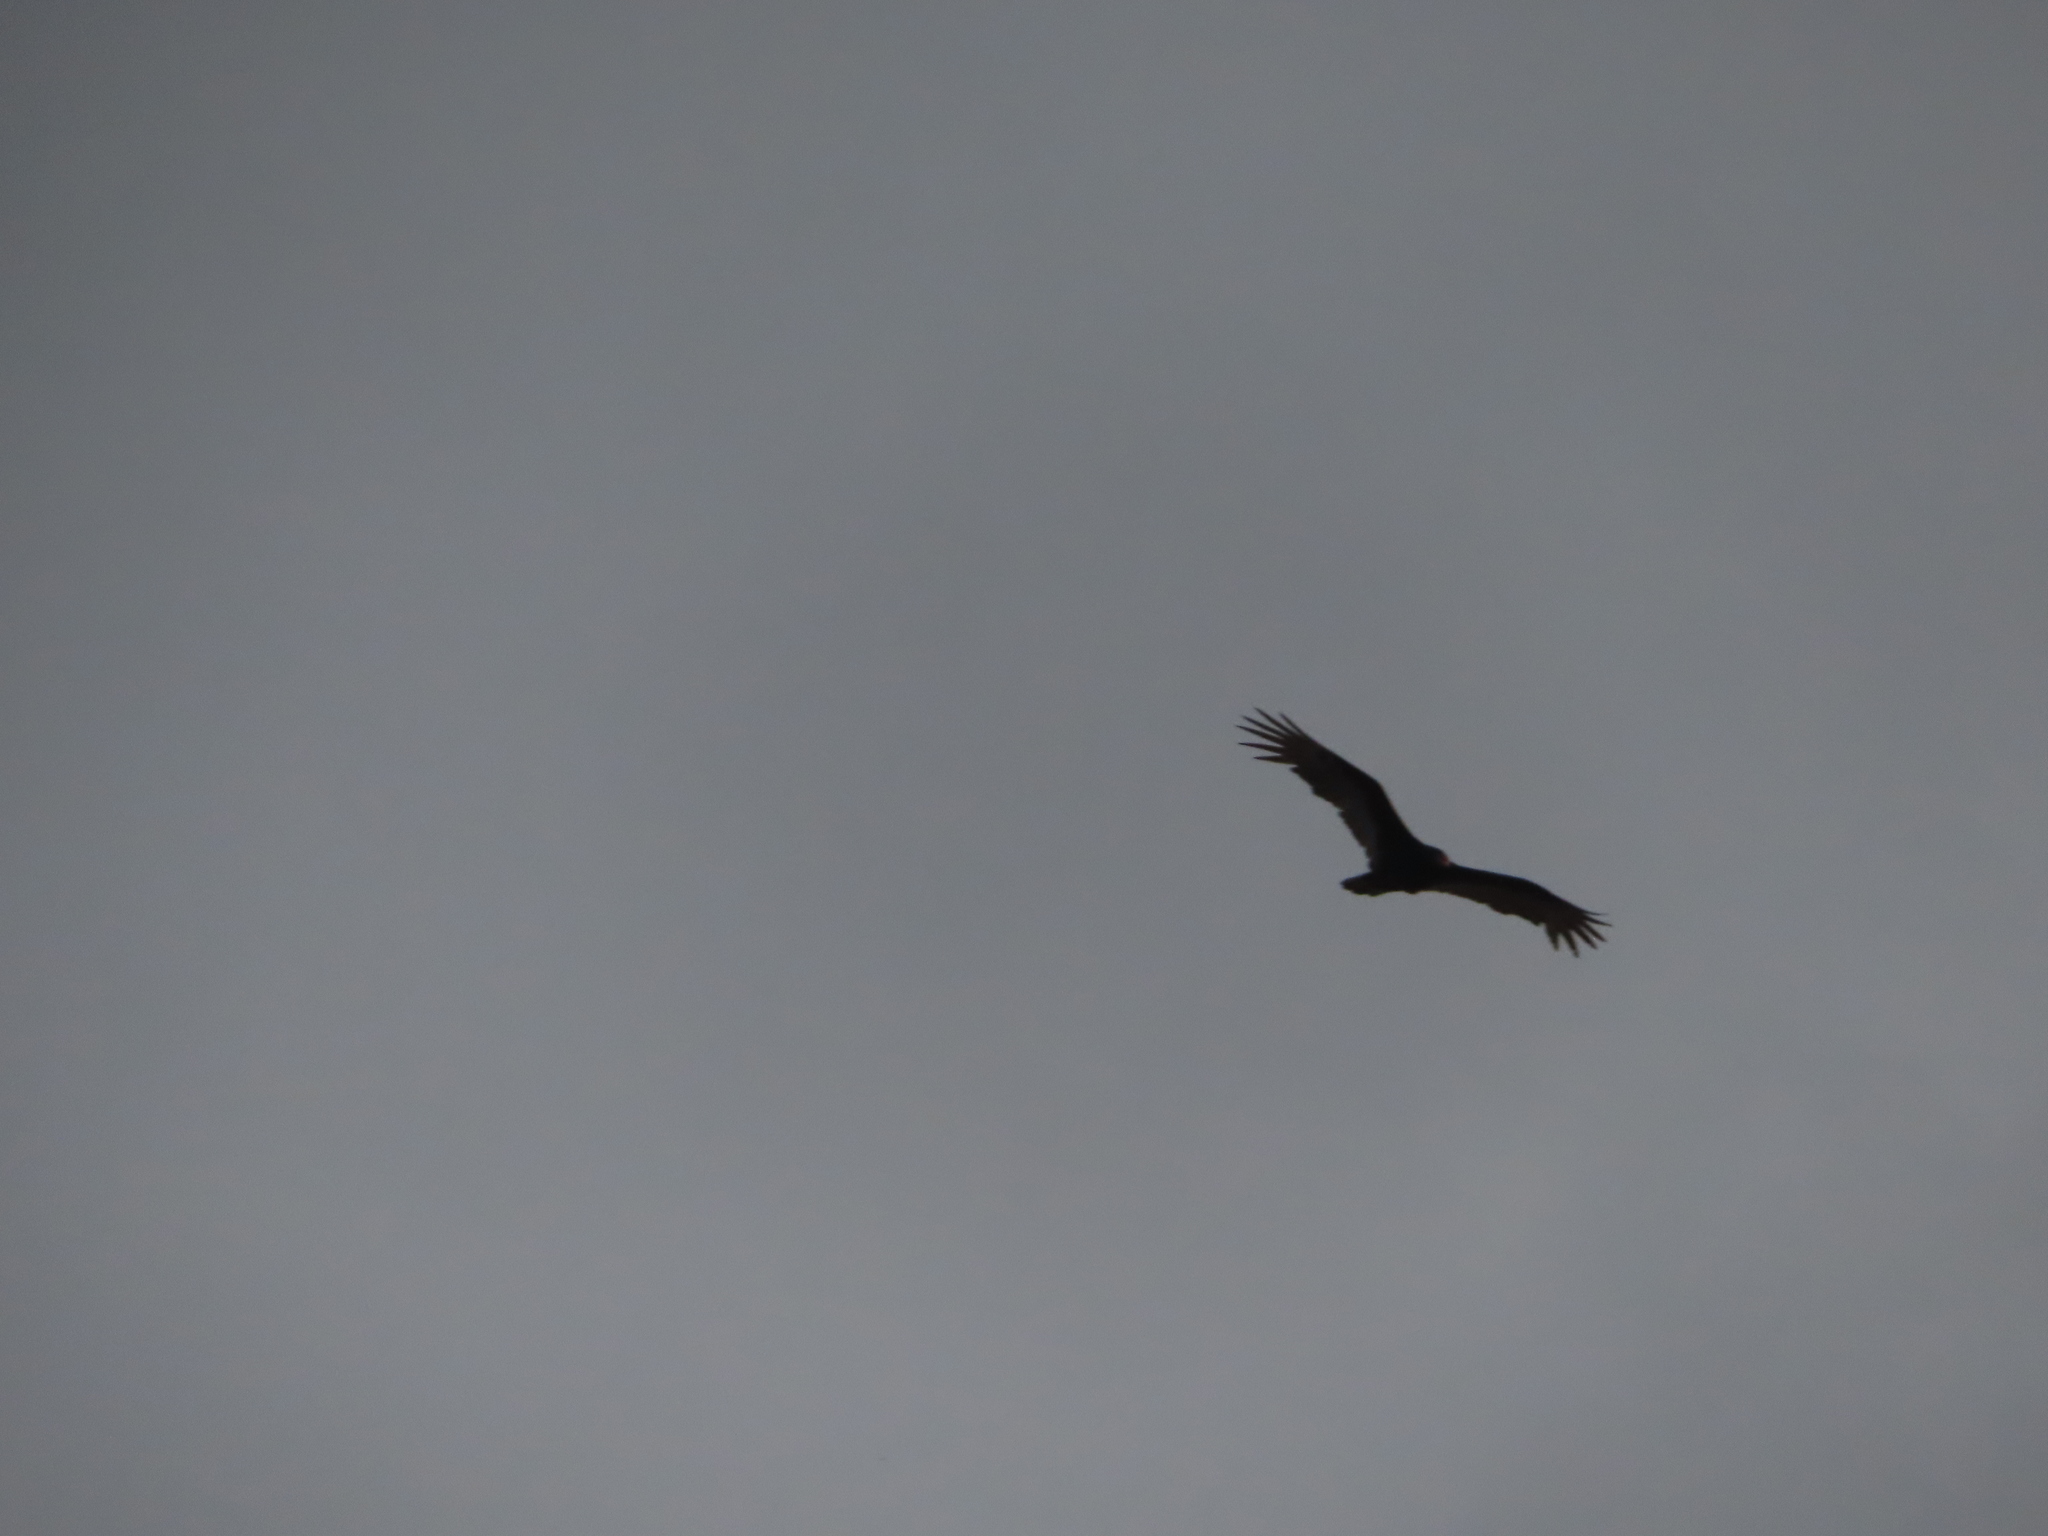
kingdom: Animalia
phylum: Chordata
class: Aves
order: Accipitriformes
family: Cathartidae
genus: Cathartes
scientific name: Cathartes aura
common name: Turkey vulture
